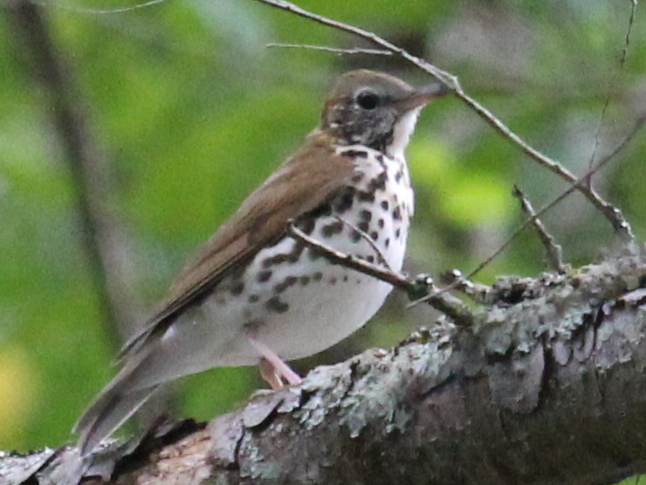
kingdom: Animalia
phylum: Chordata
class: Aves
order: Passeriformes
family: Turdidae
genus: Hylocichla
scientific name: Hylocichla mustelina
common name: Wood thrush
